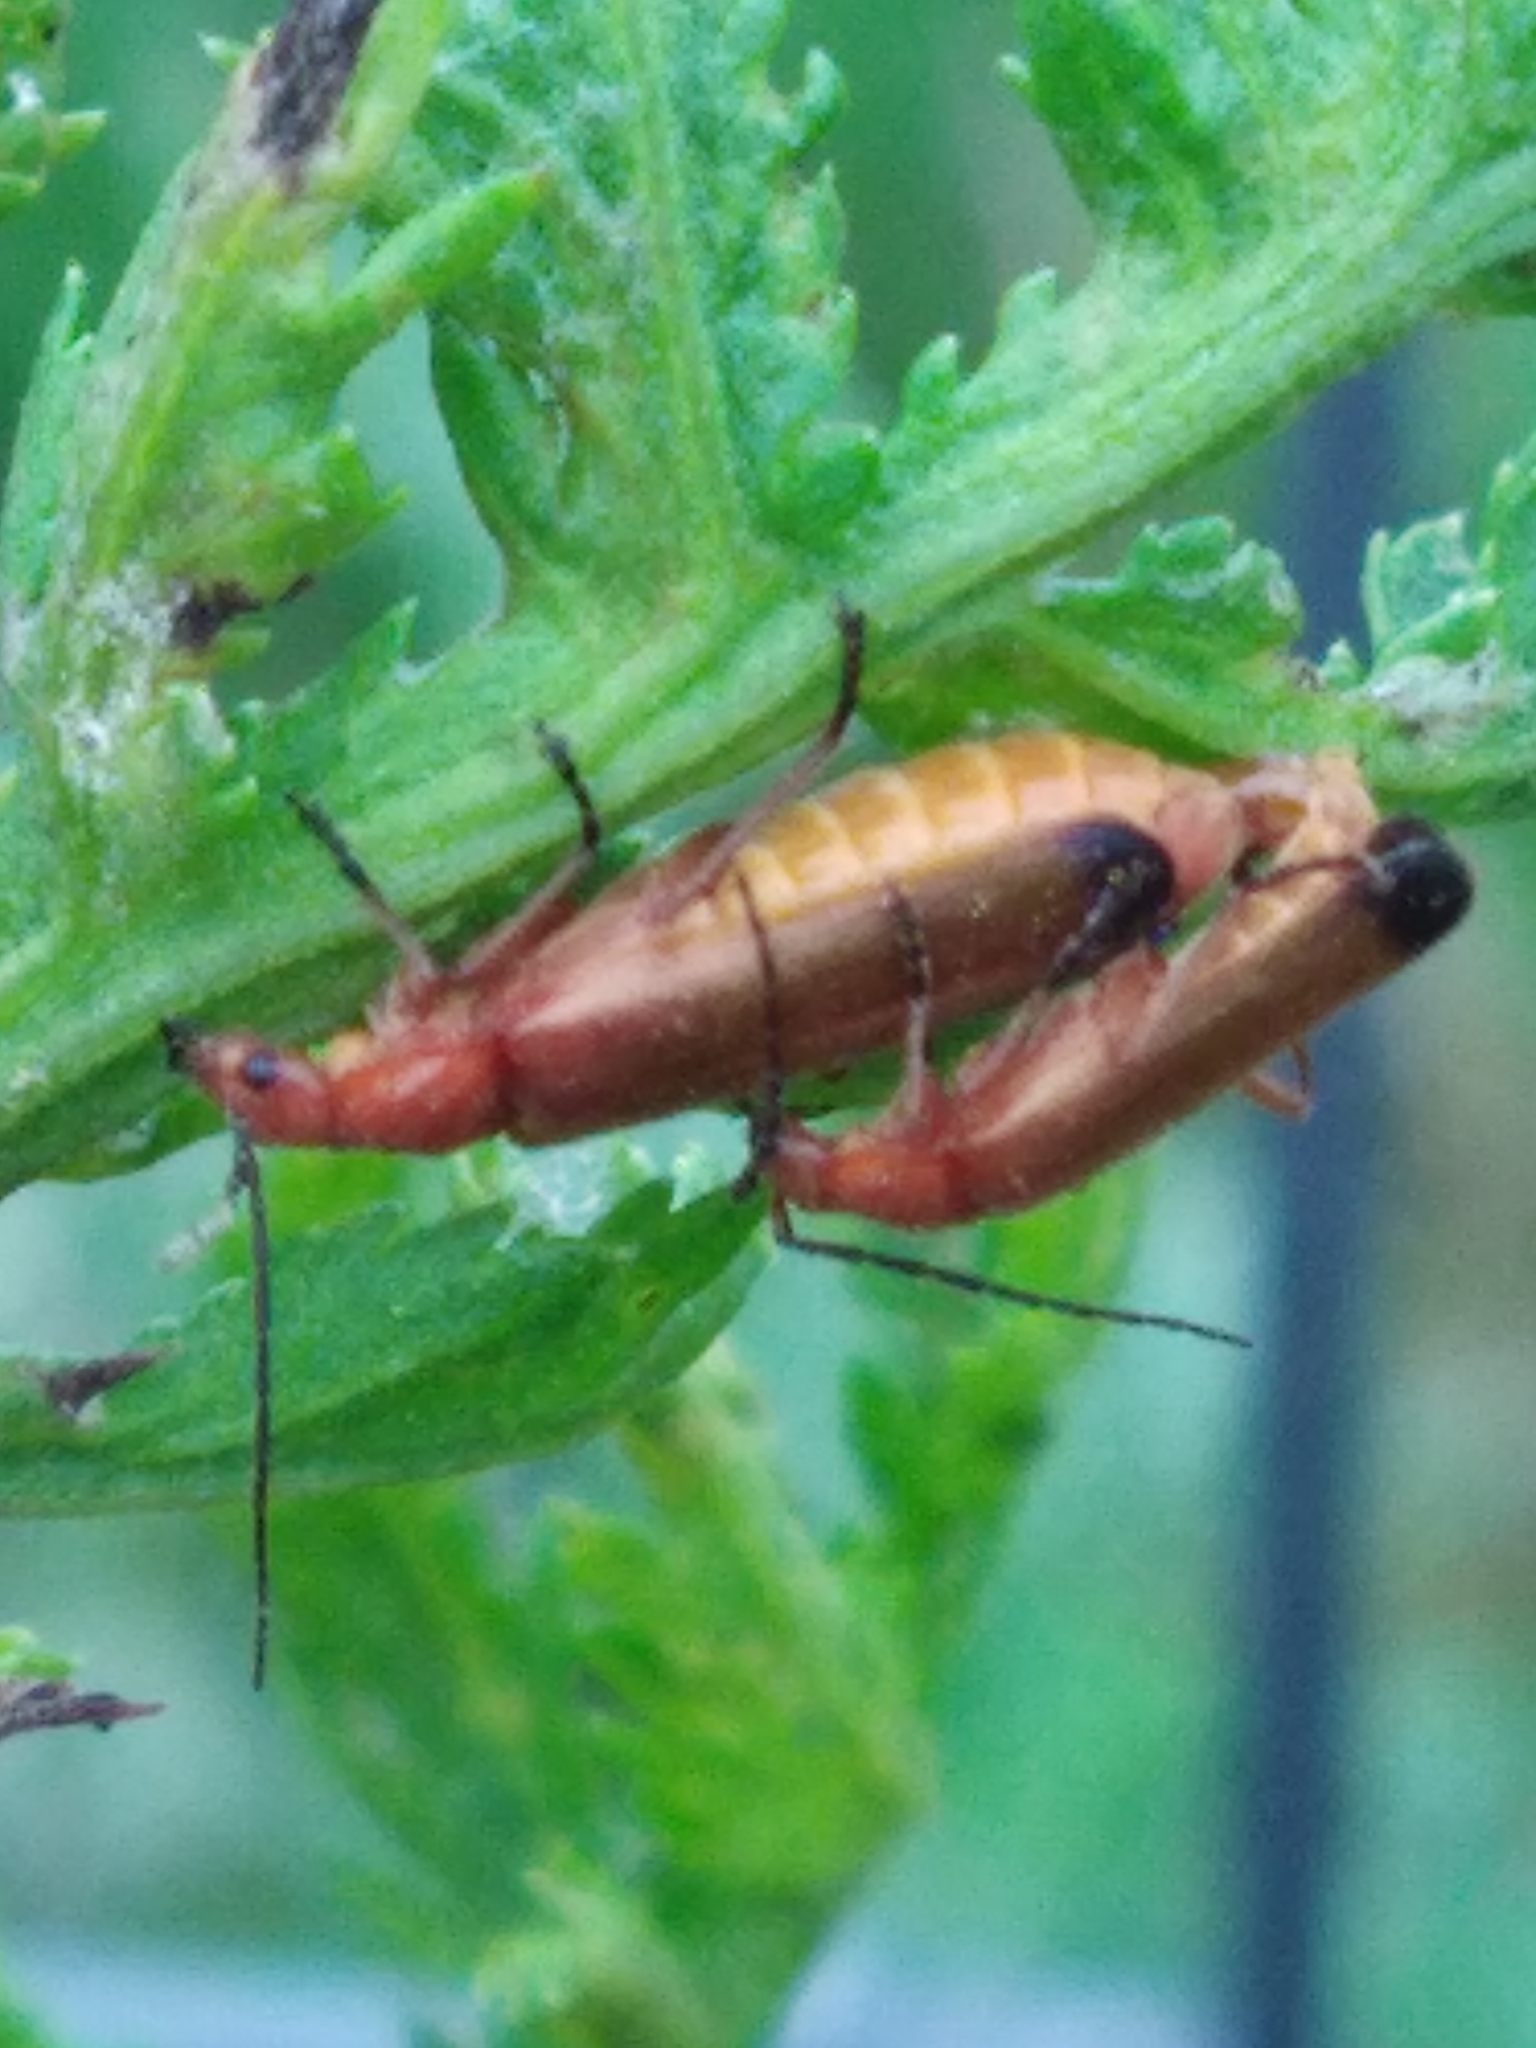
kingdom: Animalia
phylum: Arthropoda
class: Insecta
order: Coleoptera
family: Cantharidae
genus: Rhagonycha
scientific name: Rhagonycha fulva
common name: Common red soldier beetle
